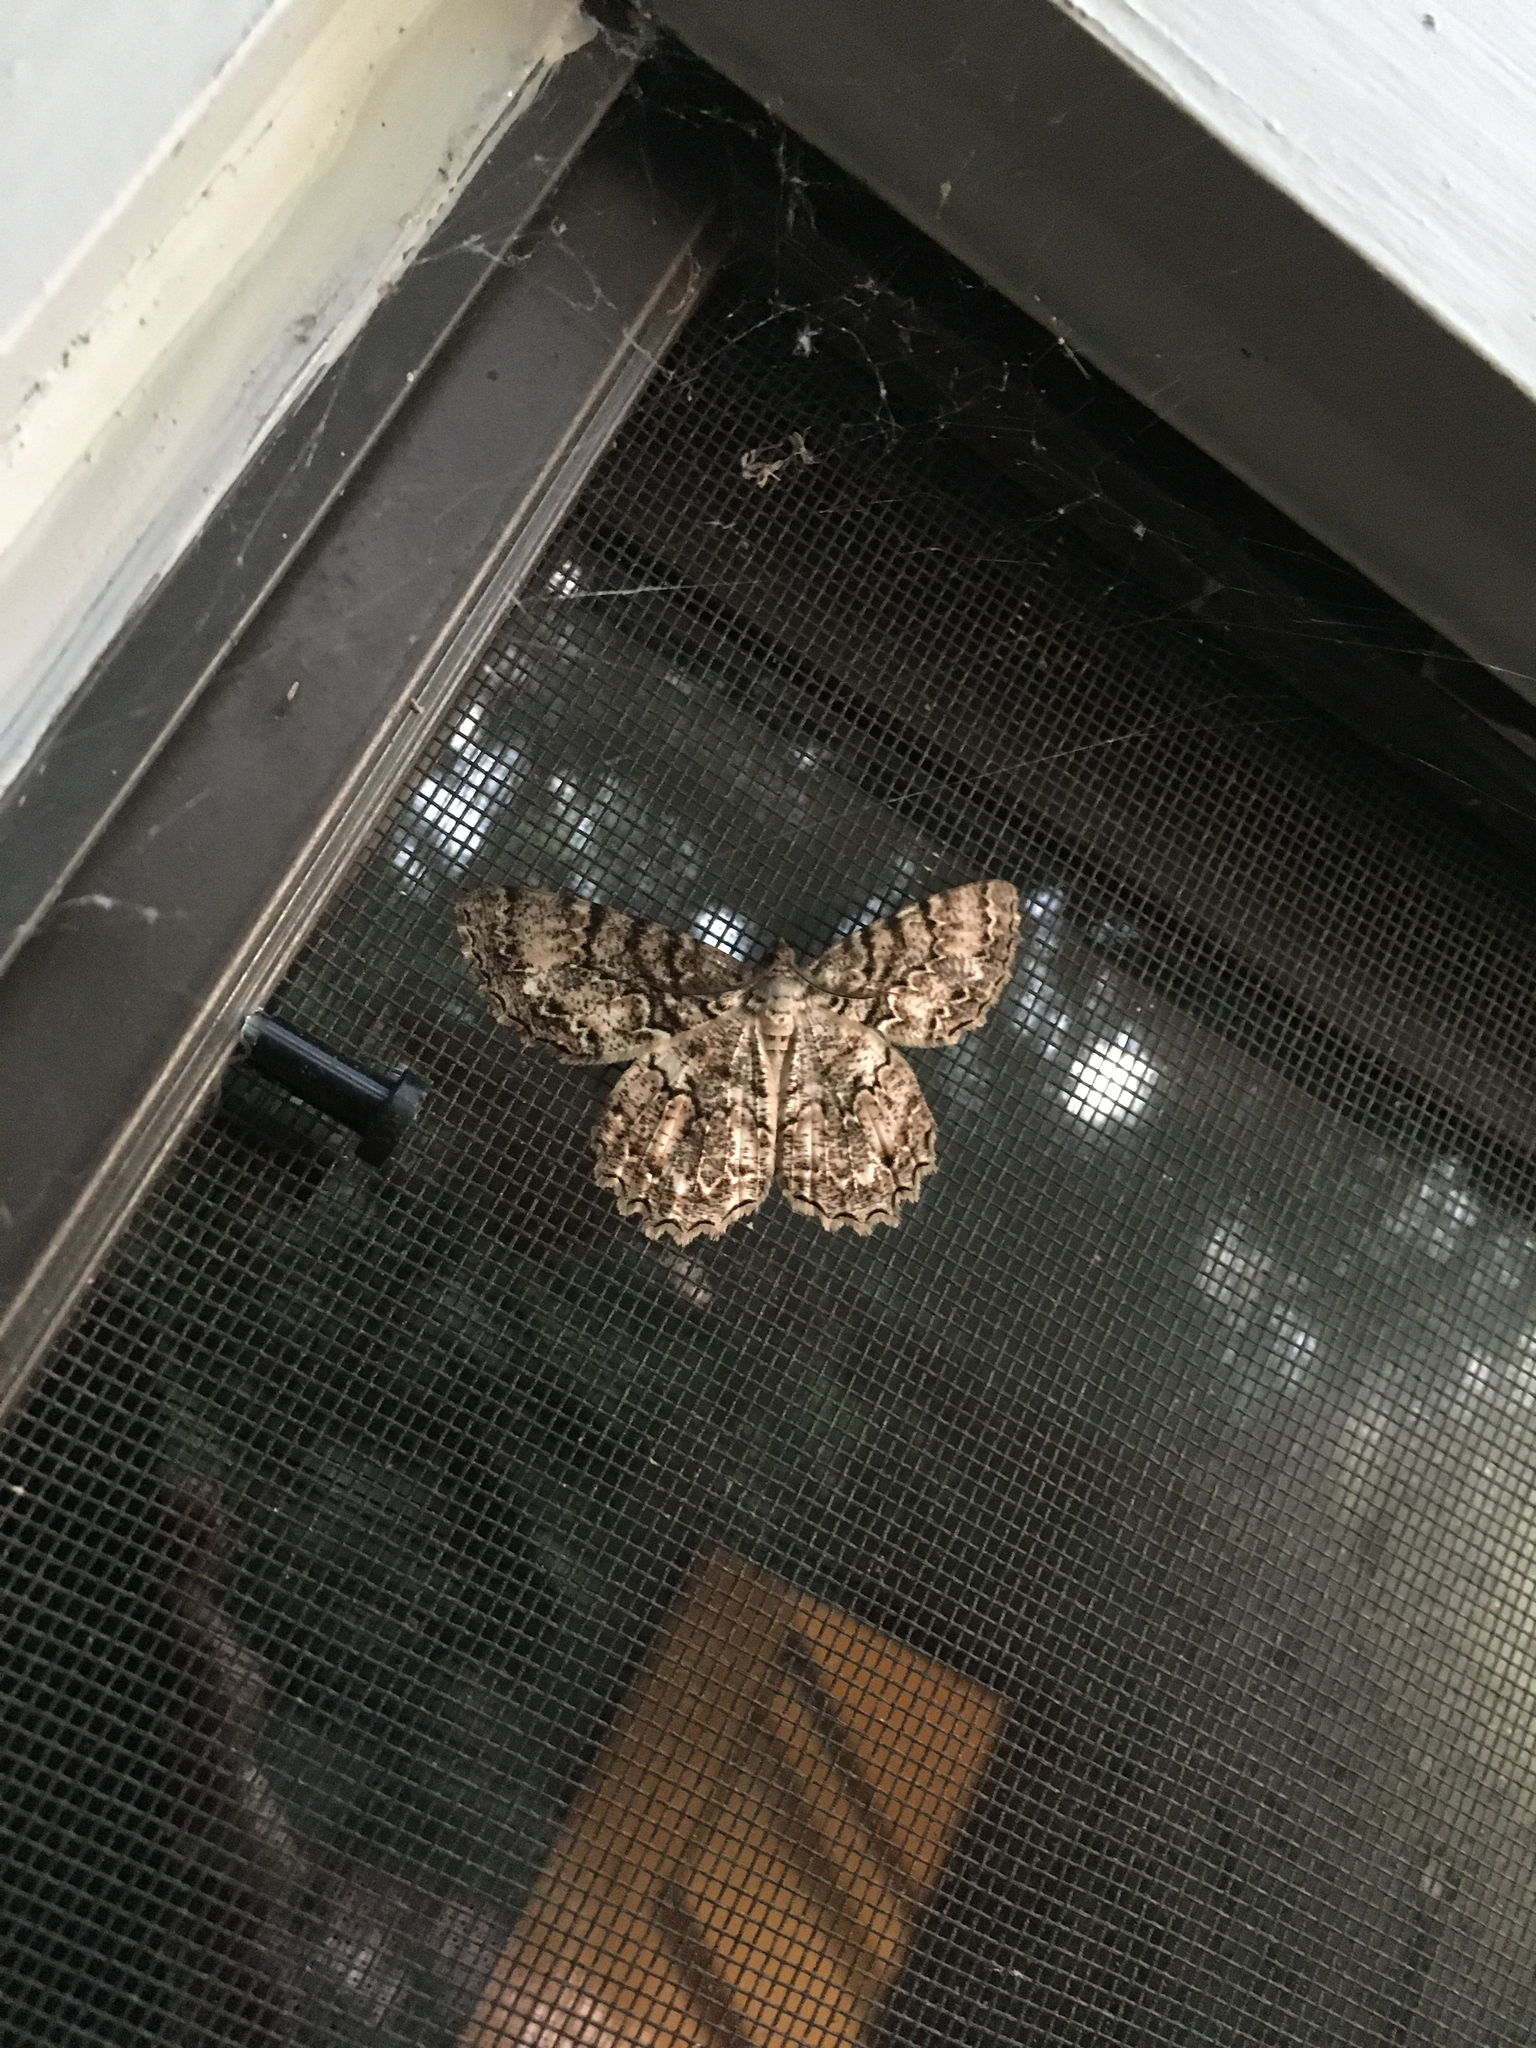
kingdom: Animalia
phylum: Arthropoda
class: Insecta
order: Lepidoptera
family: Geometridae
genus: Epimecis
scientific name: Epimecis hortaria
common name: Tulip-tree beauty
